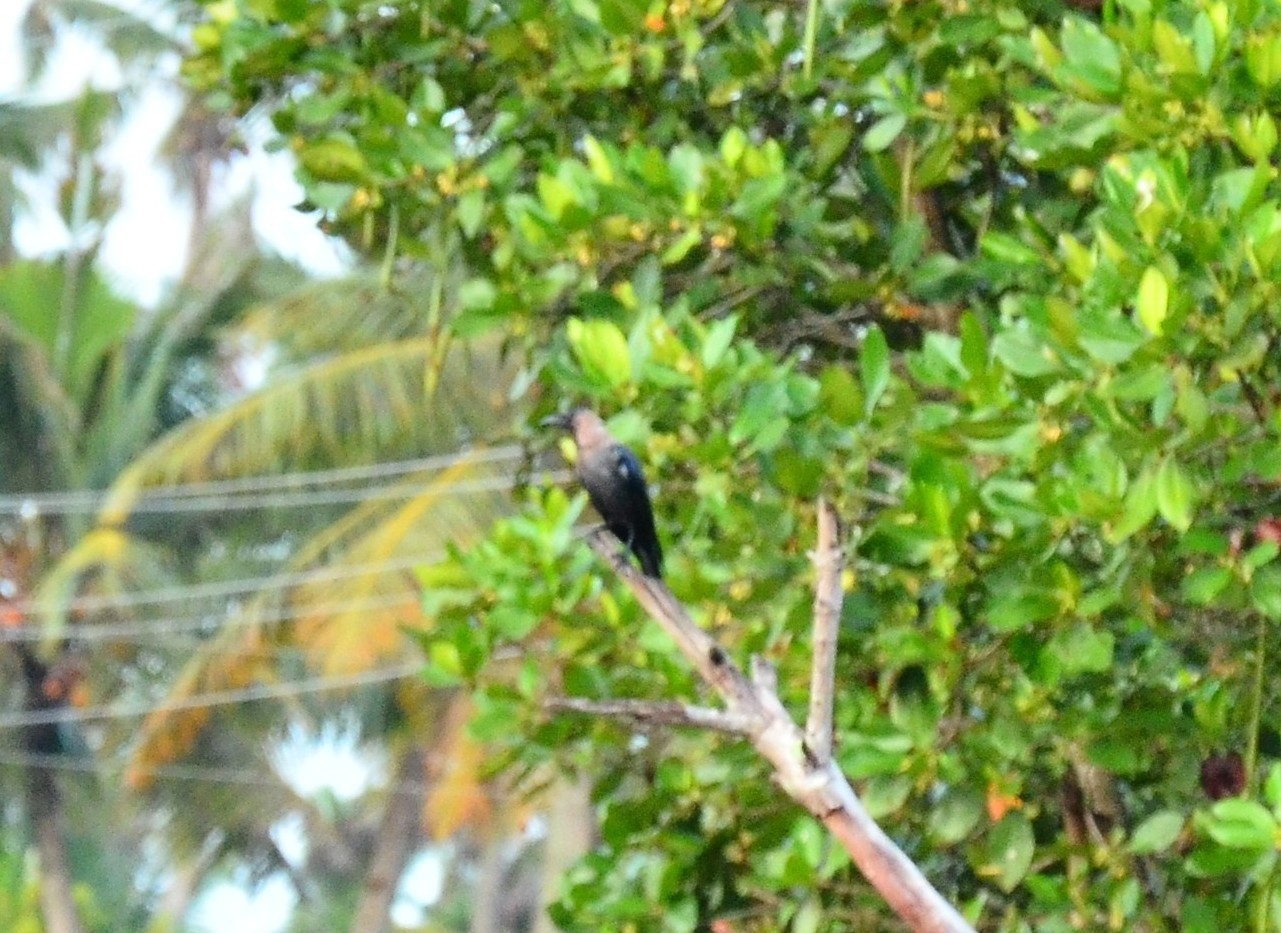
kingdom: Animalia
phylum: Chordata
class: Aves
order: Passeriformes
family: Corvidae
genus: Corvus
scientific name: Corvus splendens
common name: House crow
